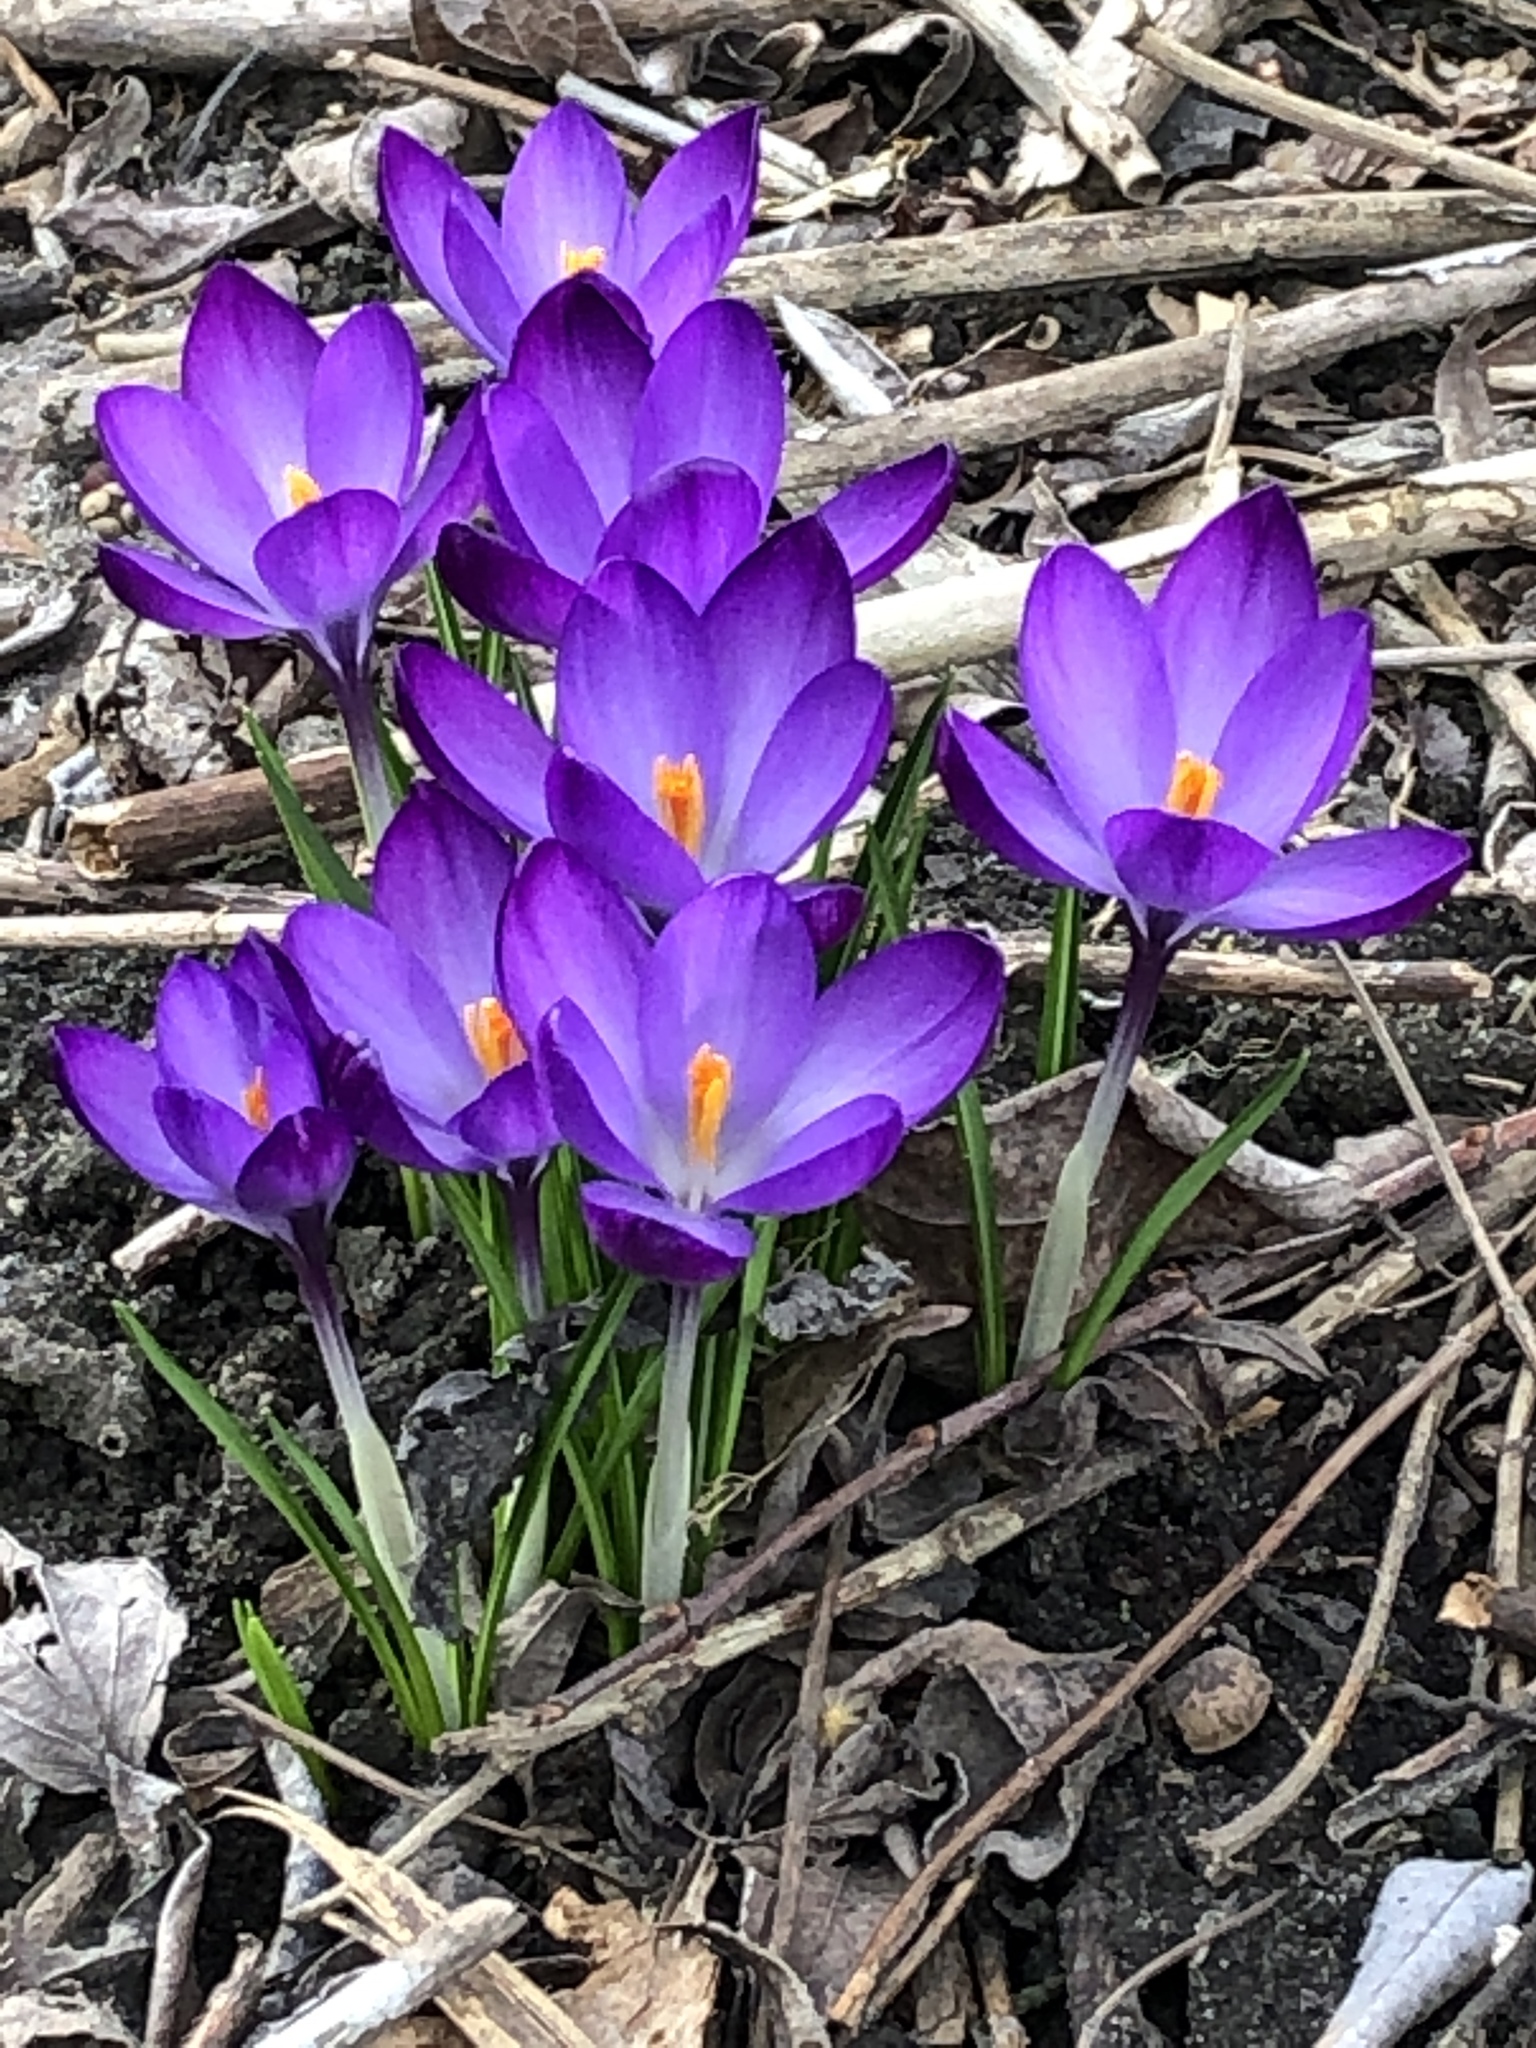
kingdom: Plantae
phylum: Tracheophyta
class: Liliopsida
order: Asparagales
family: Iridaceae
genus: Crocus
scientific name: Crocus
